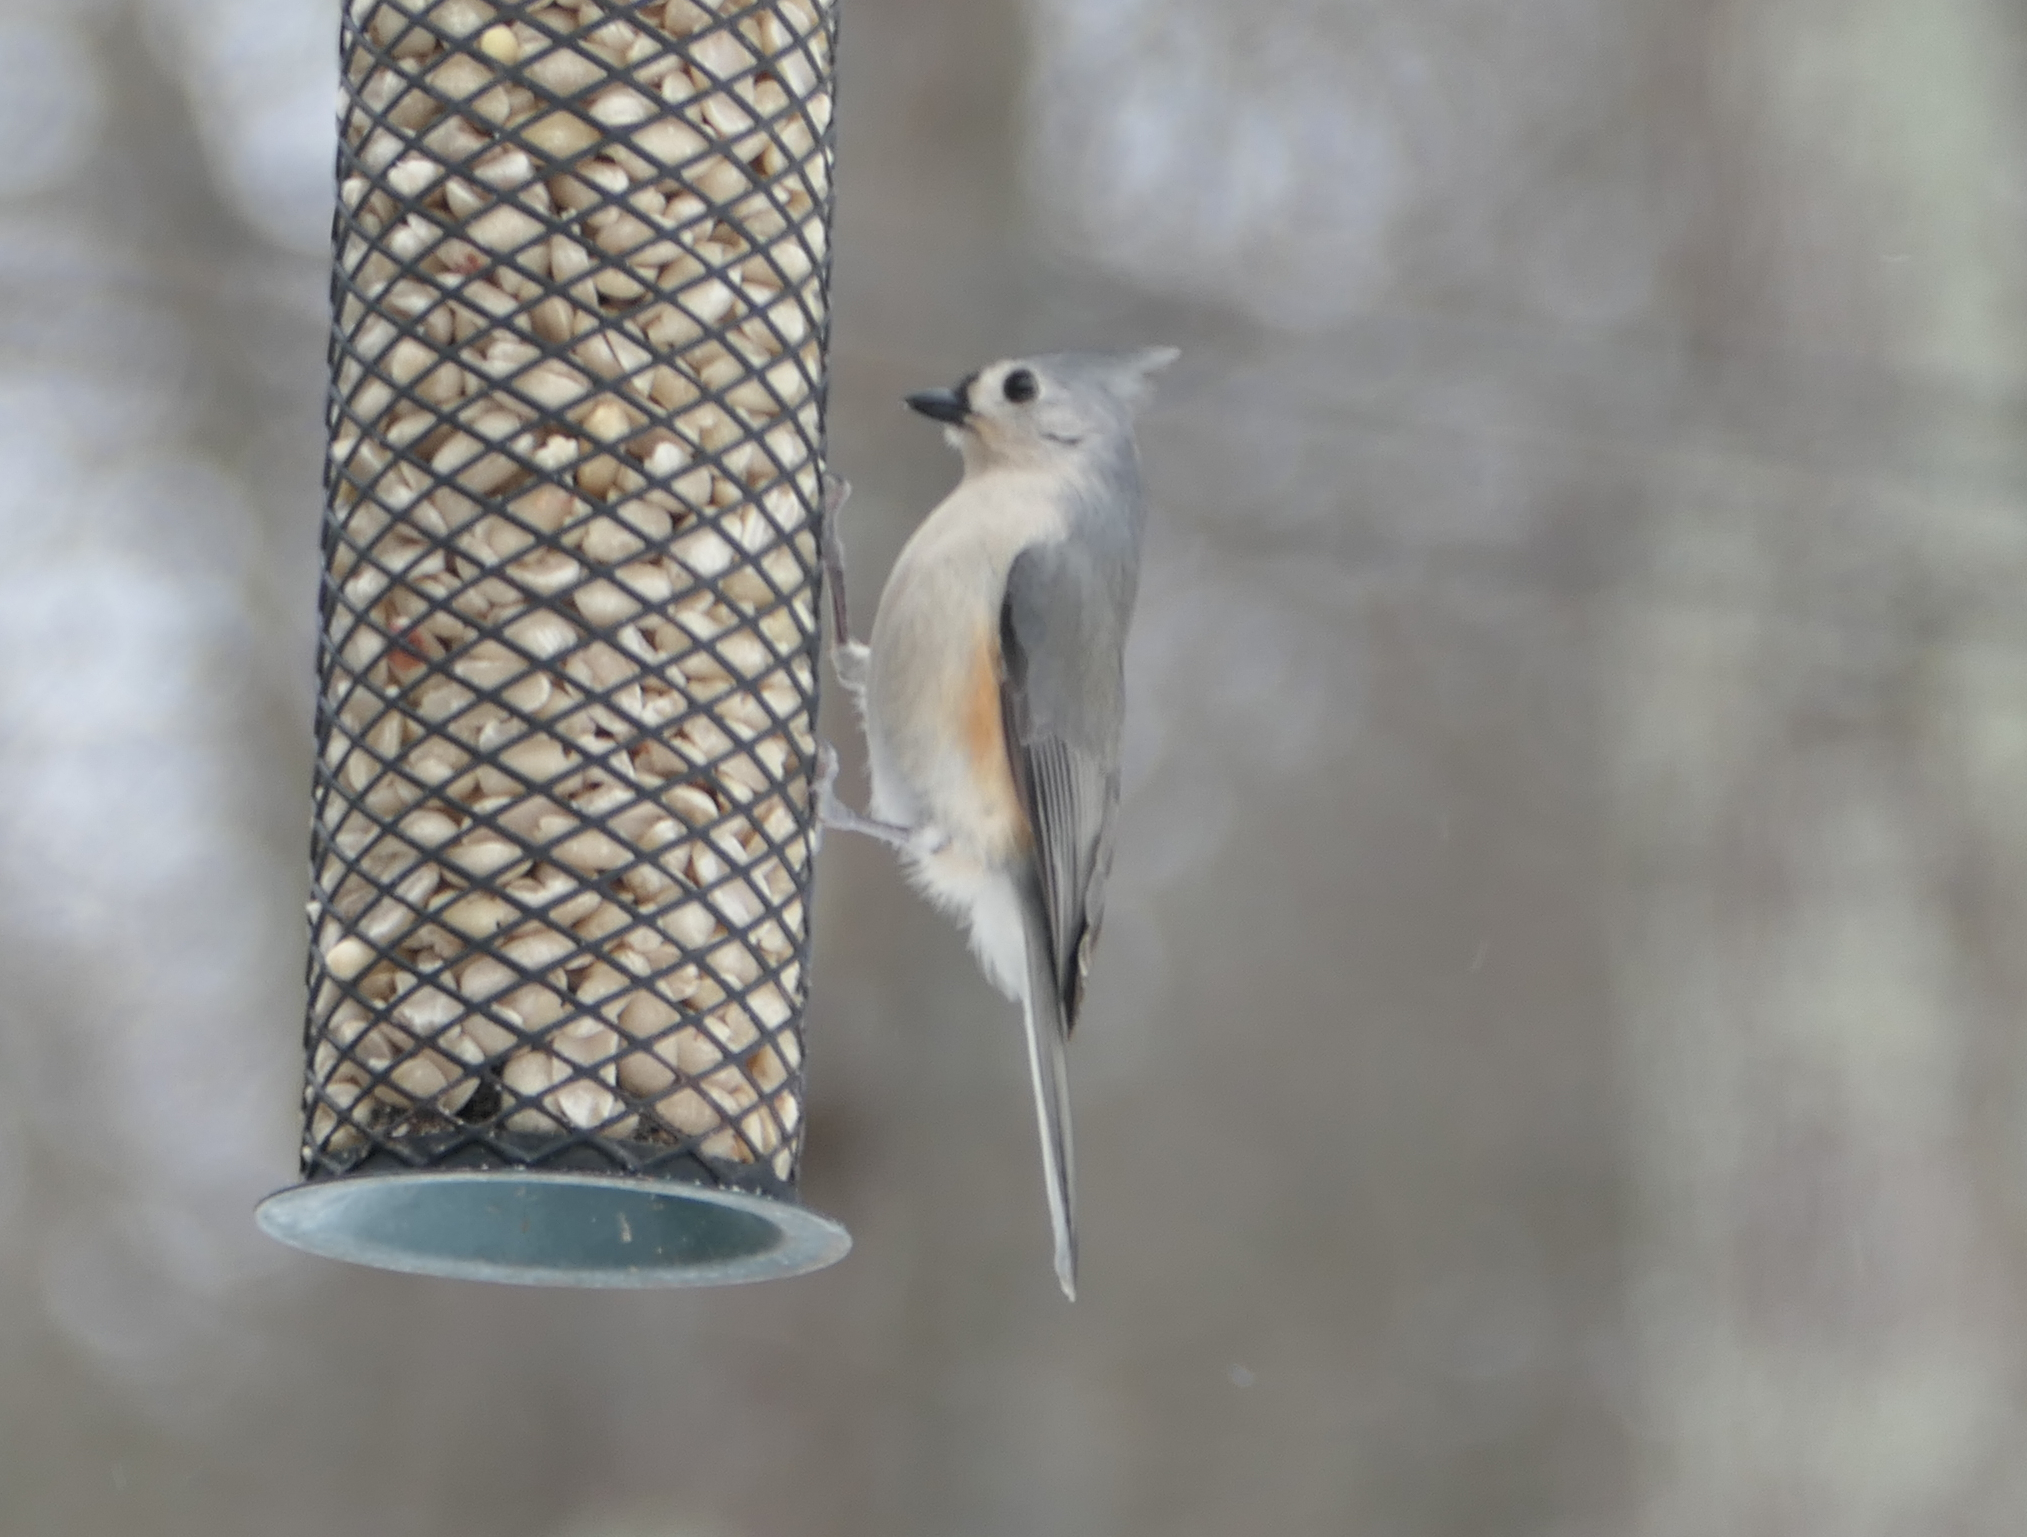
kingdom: Animalia
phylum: Chordata
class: Aves
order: Passeriformes
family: Paridae
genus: Baeolophus
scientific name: Baeolophus bicolor
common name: Tufted titmouse
